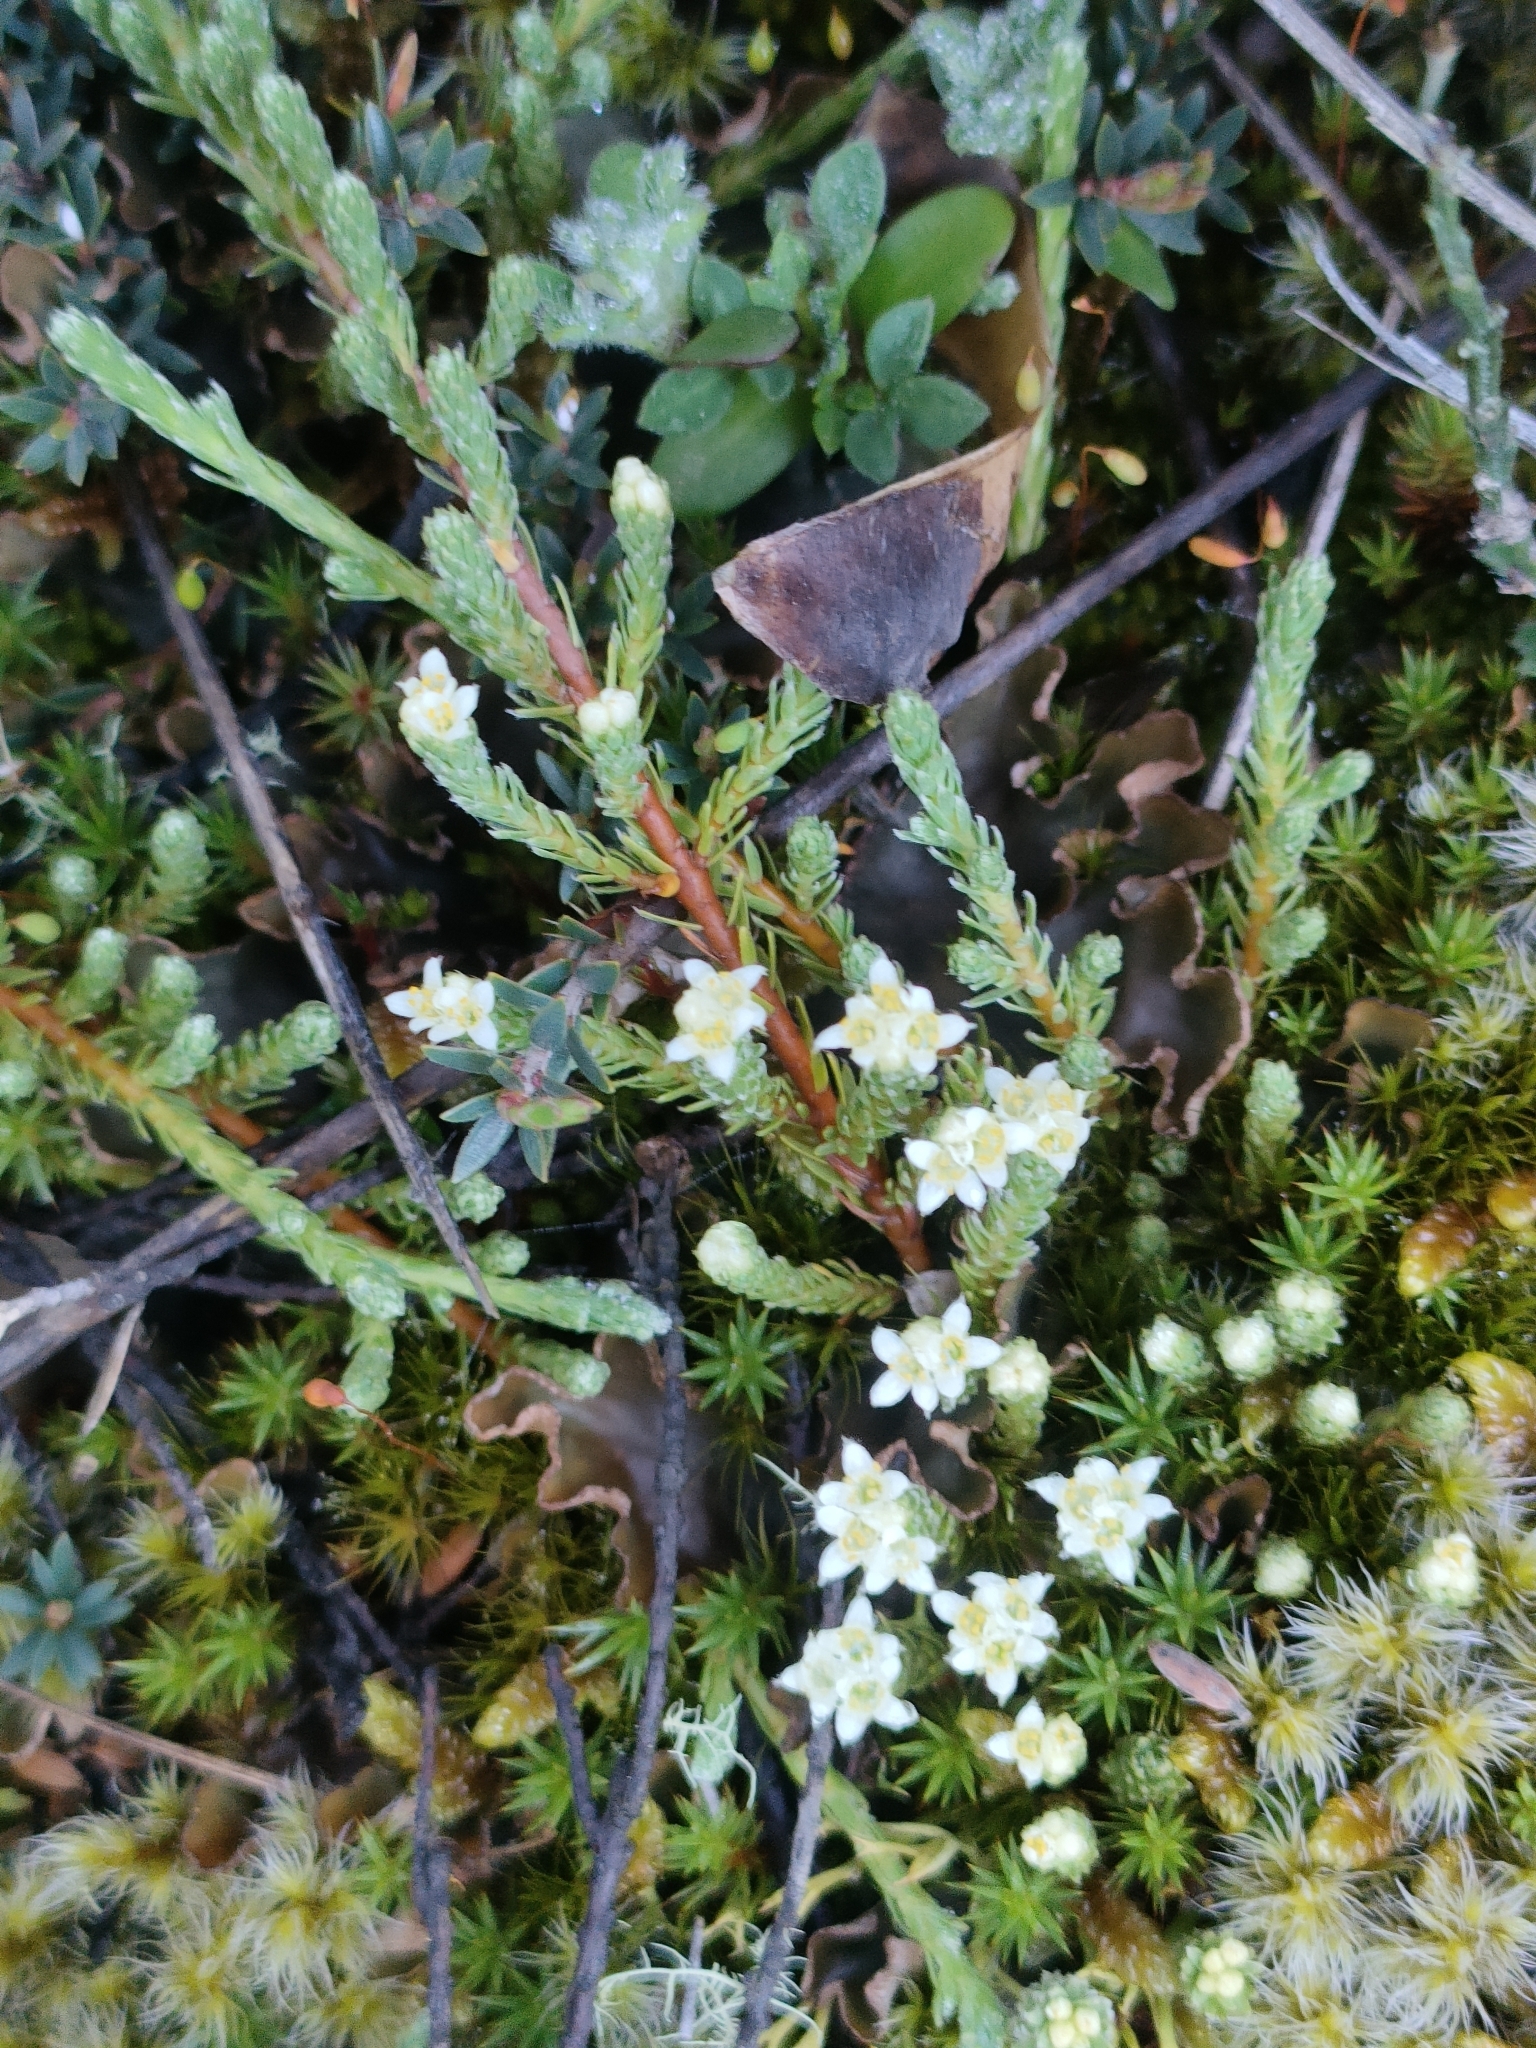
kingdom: Plantae
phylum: Tracheophyta
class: Magnoliopsida
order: Malvales
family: Thymelaeaceae
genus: Kelleria
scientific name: Kelleria dieffenbachii
